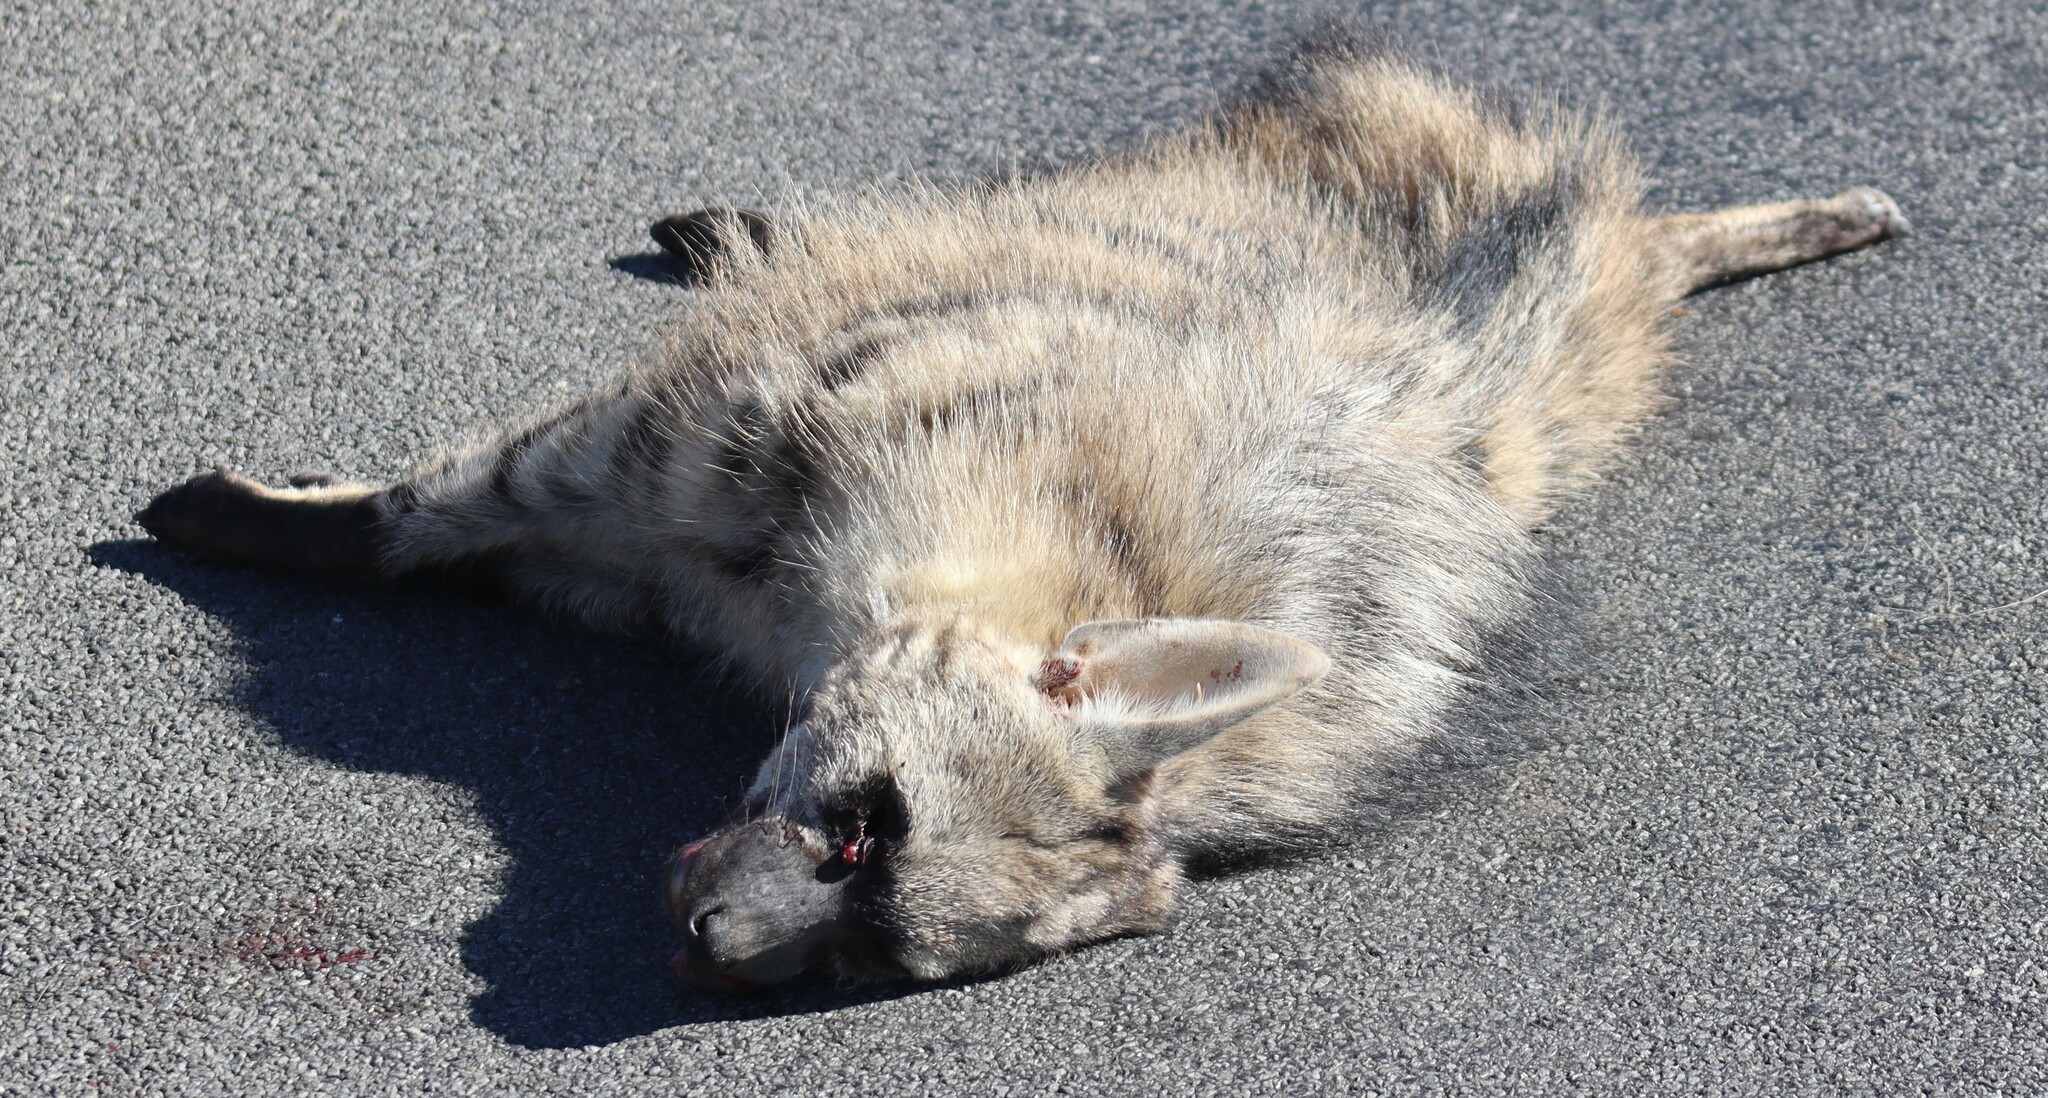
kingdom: Animalia
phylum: Chordata
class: Mammalia
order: Carnivora
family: Hyaenidae
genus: Proteles
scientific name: Proteles cristata
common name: Aardwolf
